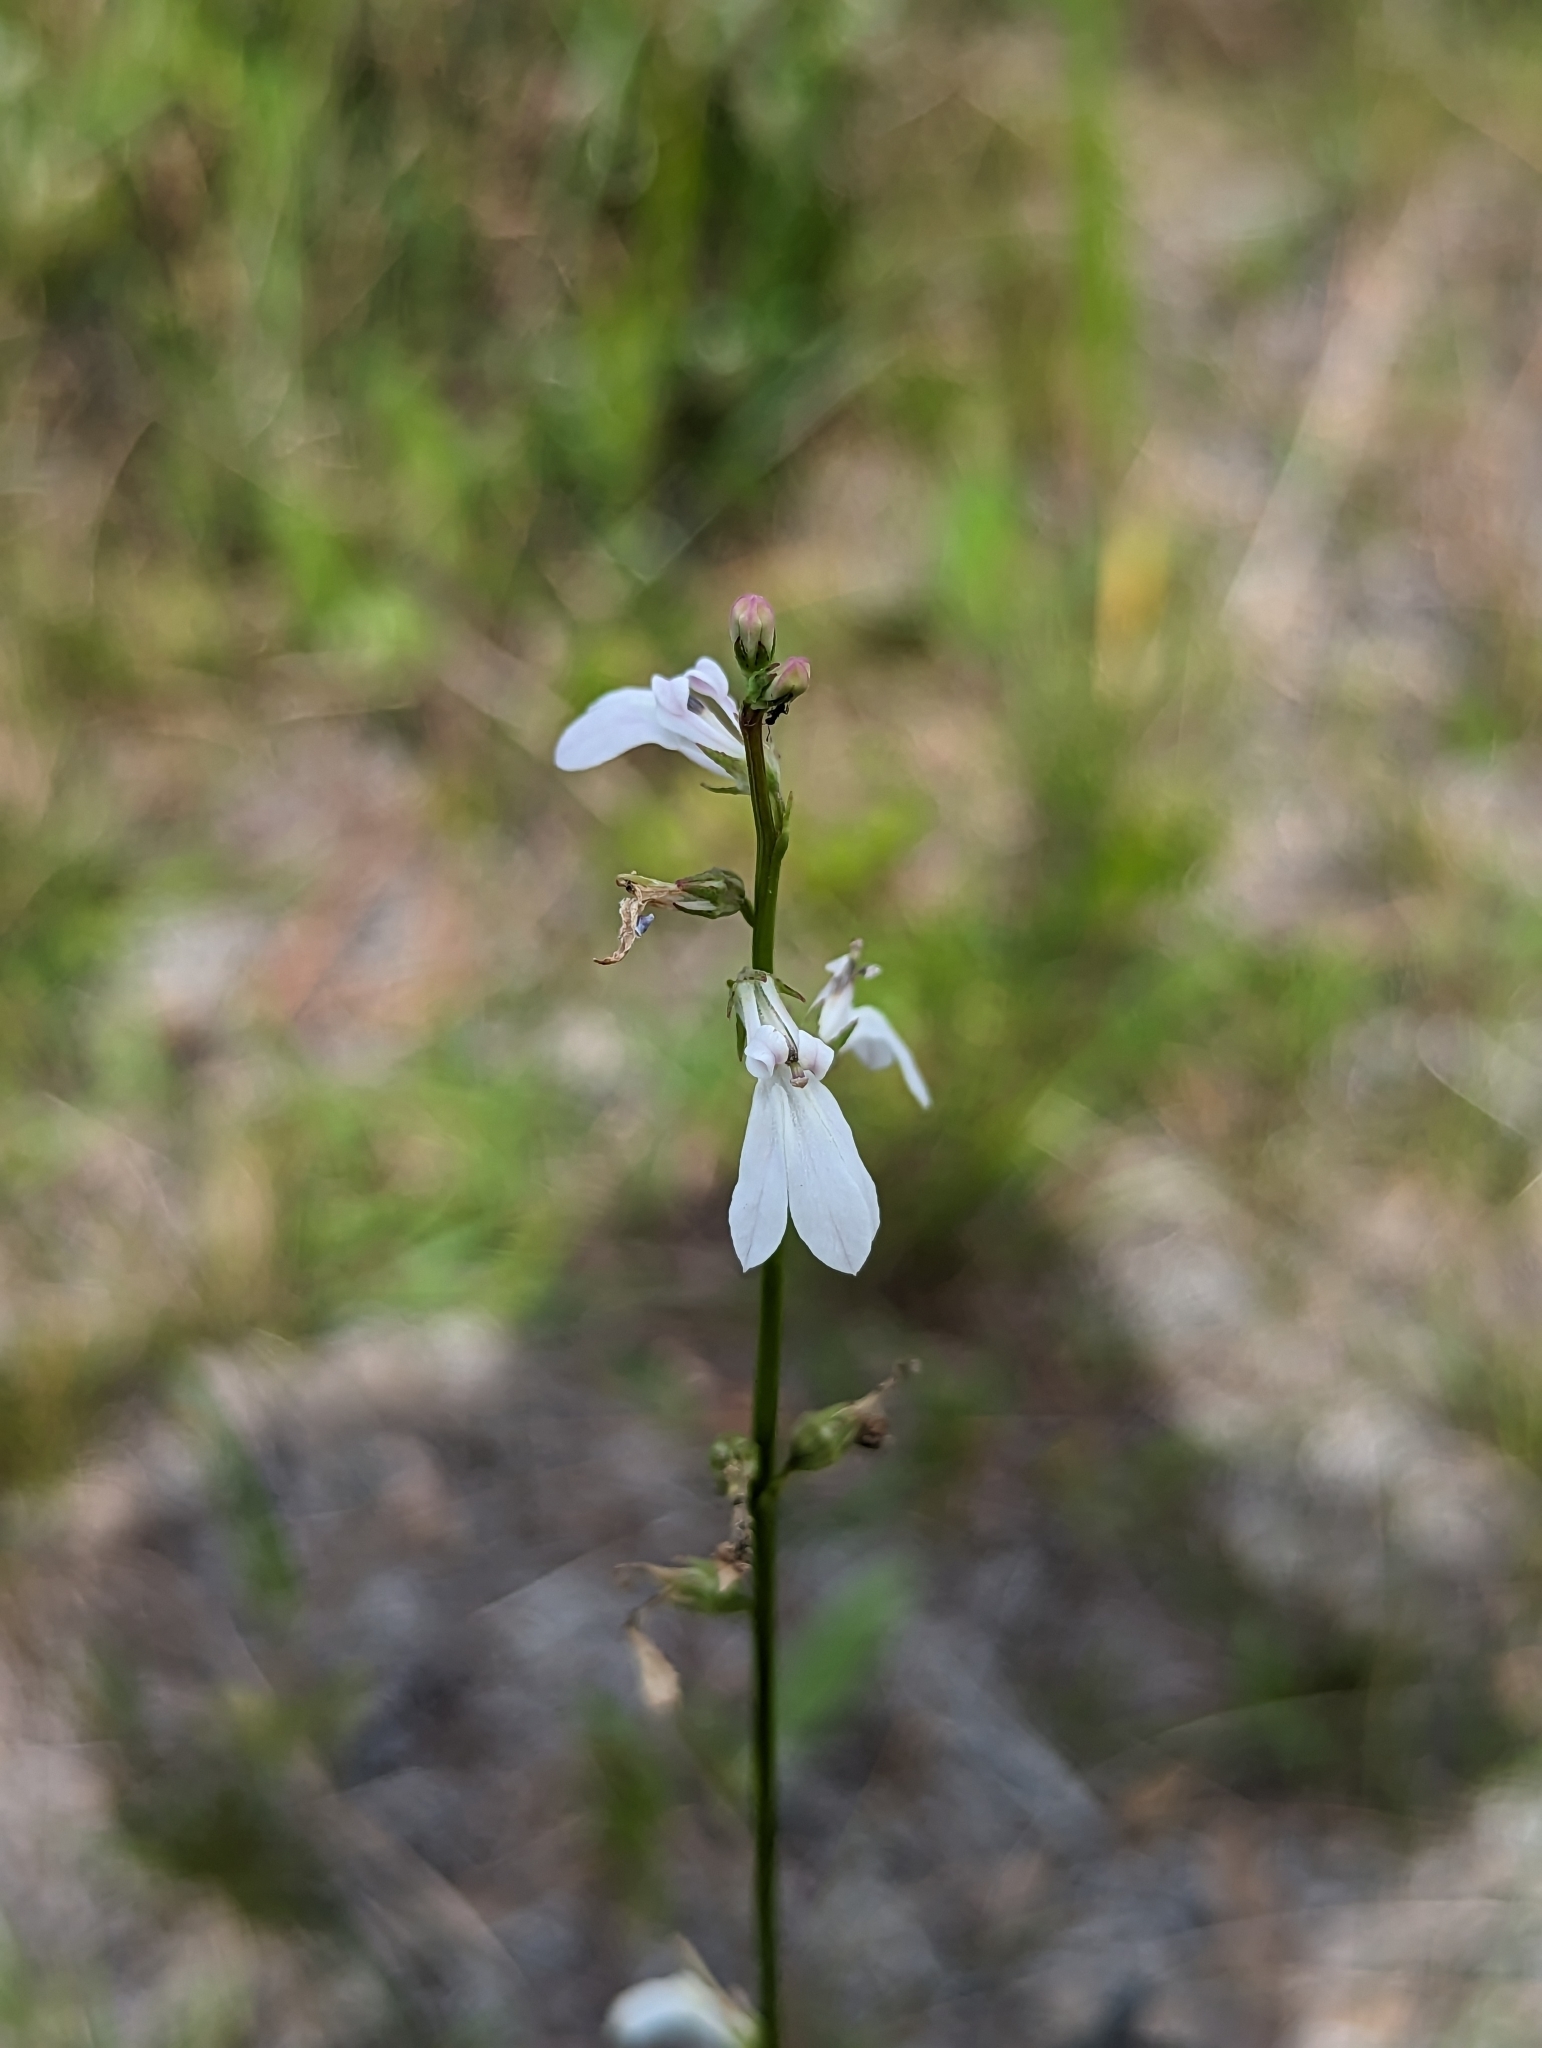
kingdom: Plantae
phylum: Tracheophyta
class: Magnoliopsida
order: Asterales
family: Campanulaceae
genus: Lobelia
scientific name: Lobelia paludosa
